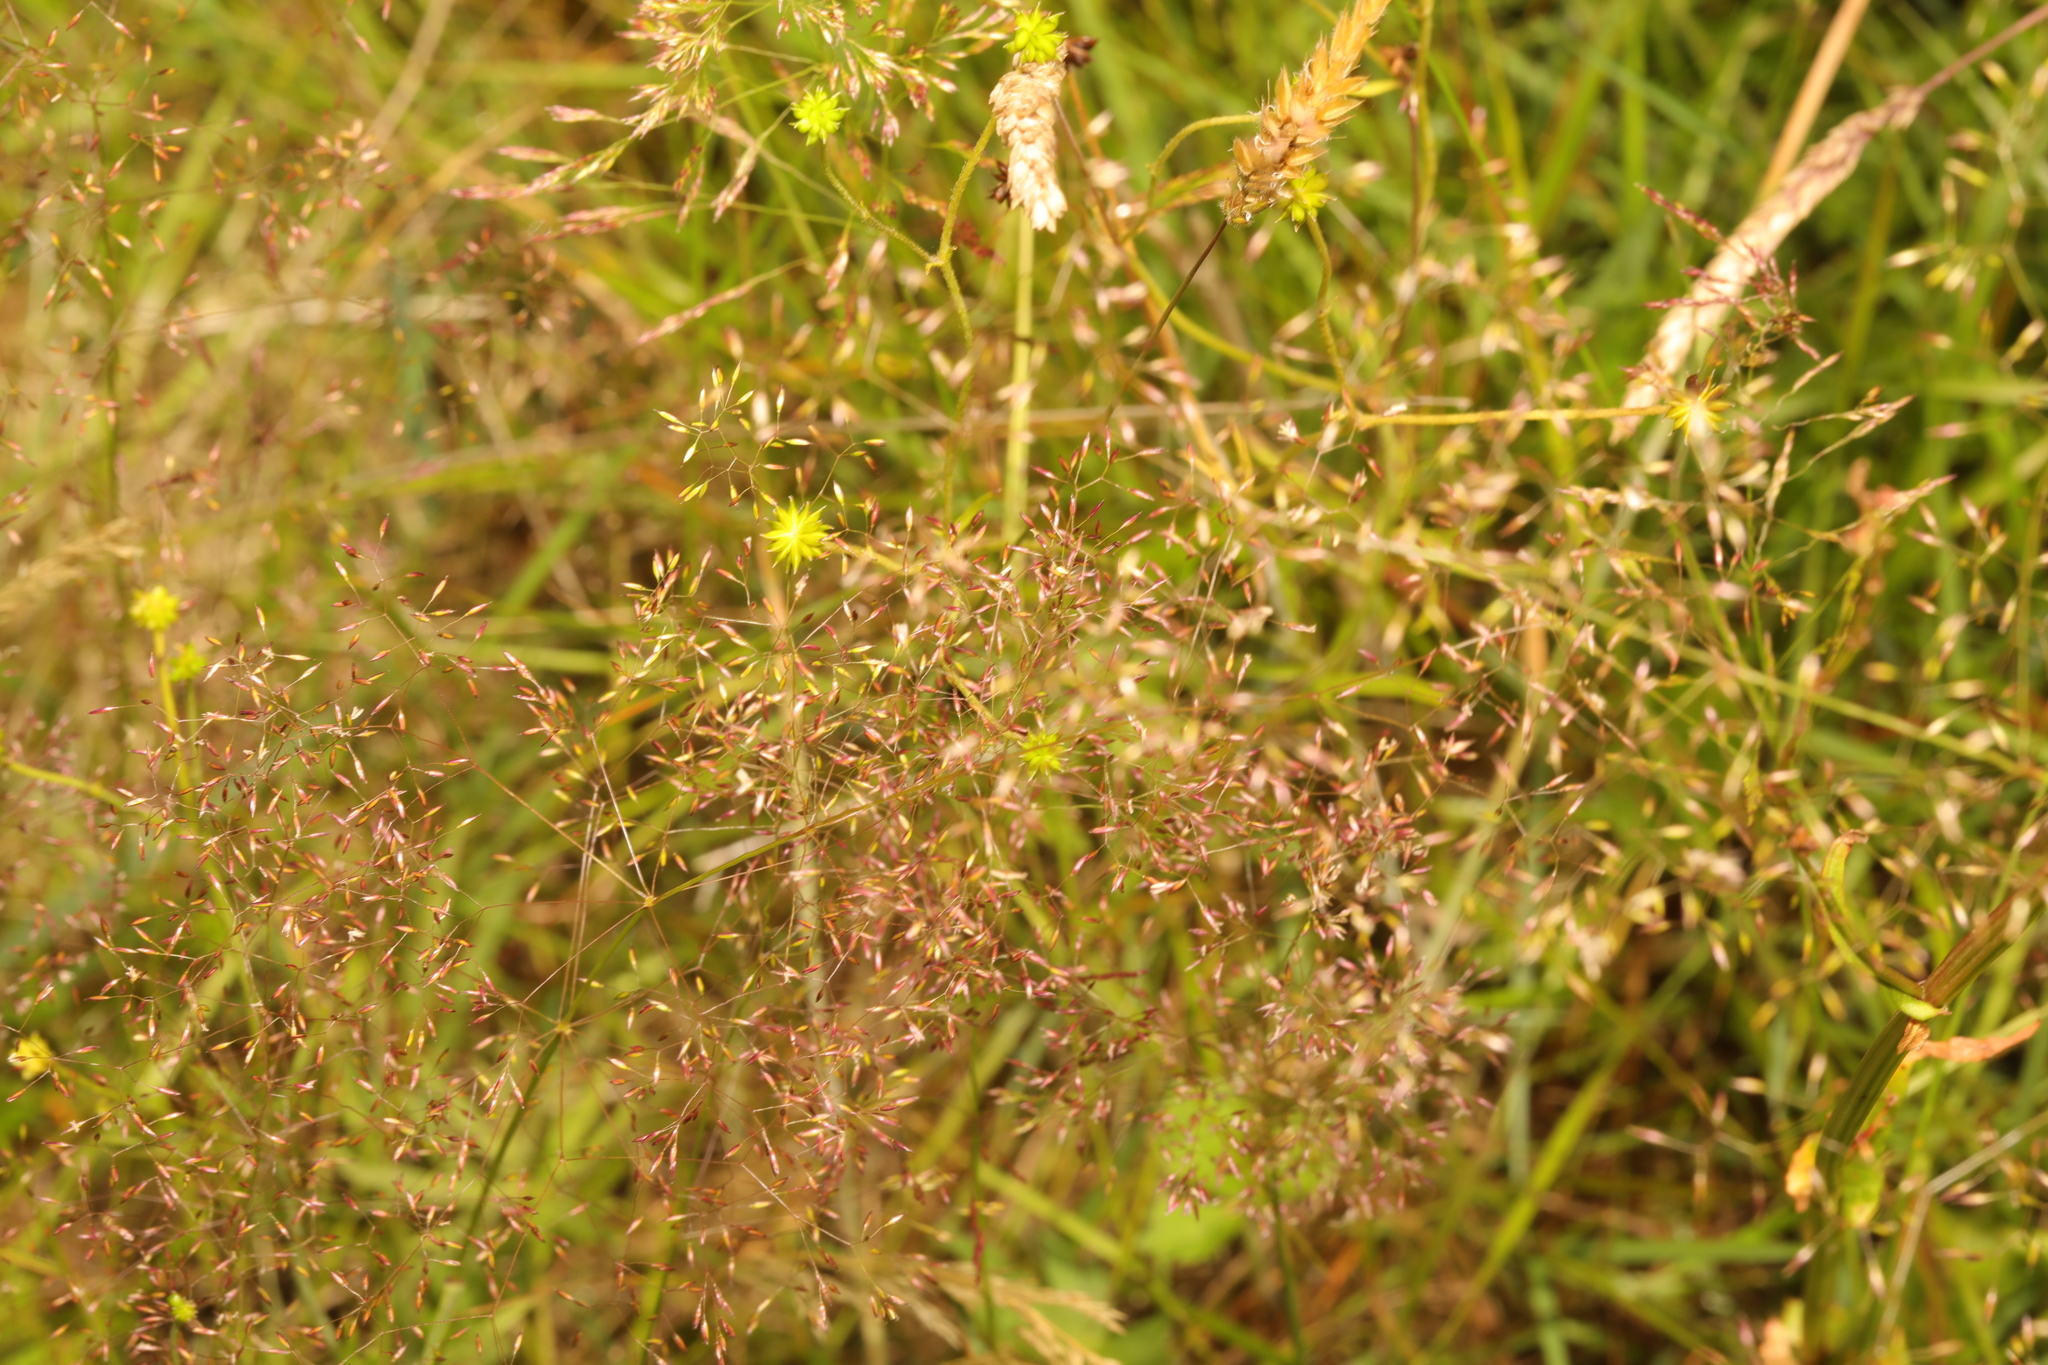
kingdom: Plantae
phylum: Tracheophyta
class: Liliopsida
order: Poales
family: Poaceae
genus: Agrostis
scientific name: Agrostis capillaris
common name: Colonial bentgrass
